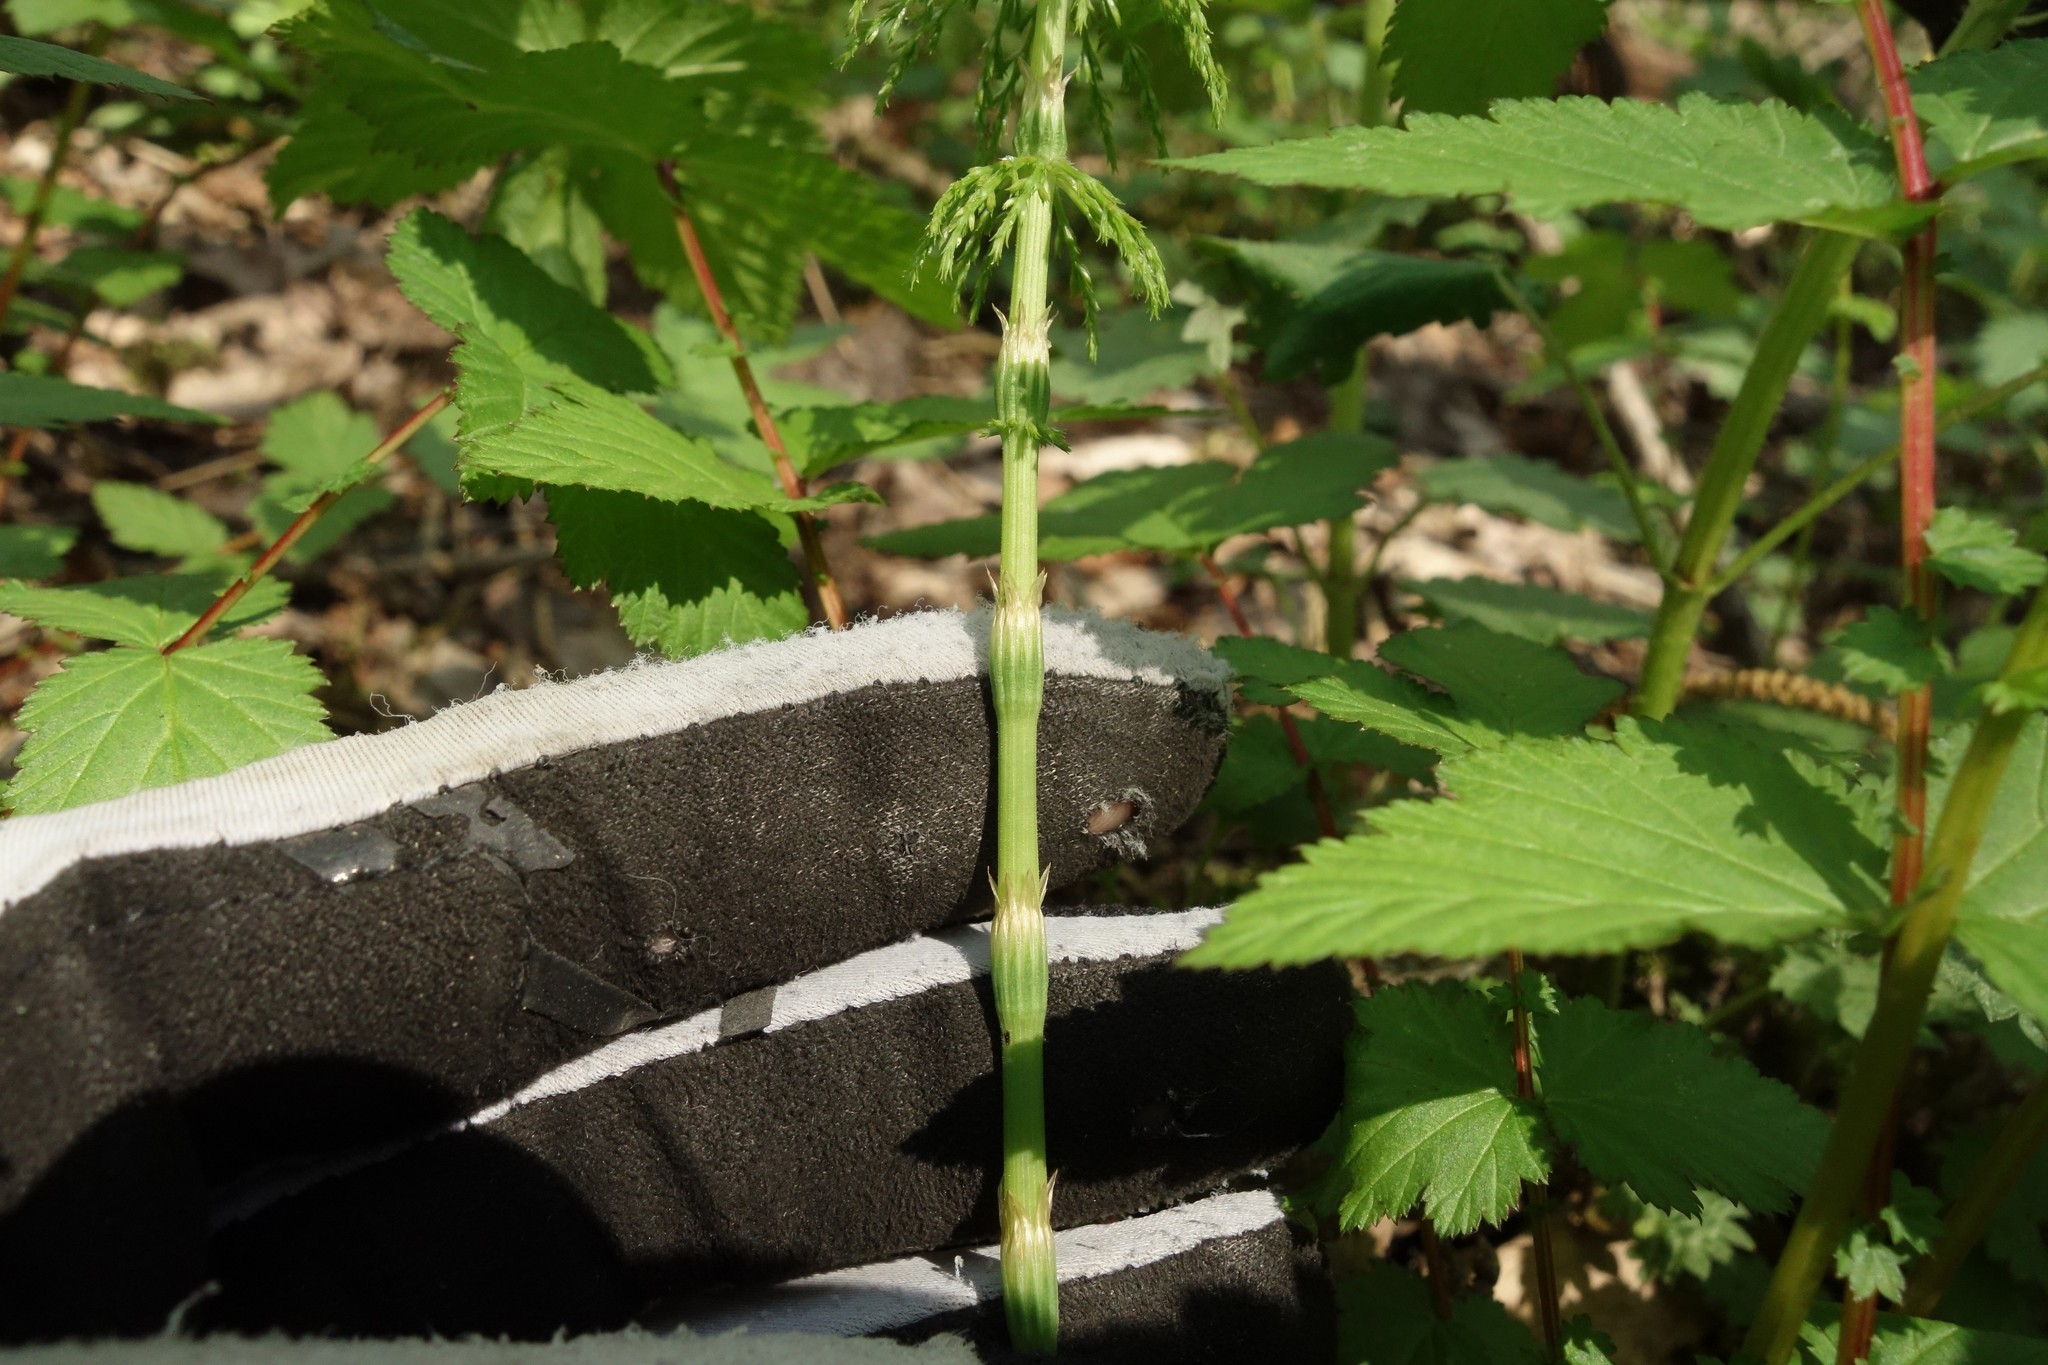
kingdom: Plantae
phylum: Tracheophyta
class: Polypodiopsida
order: Equisetales
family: Equisetaceae
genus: Equisetum
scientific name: Equisetum sylvaticum
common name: Wood horsetail
